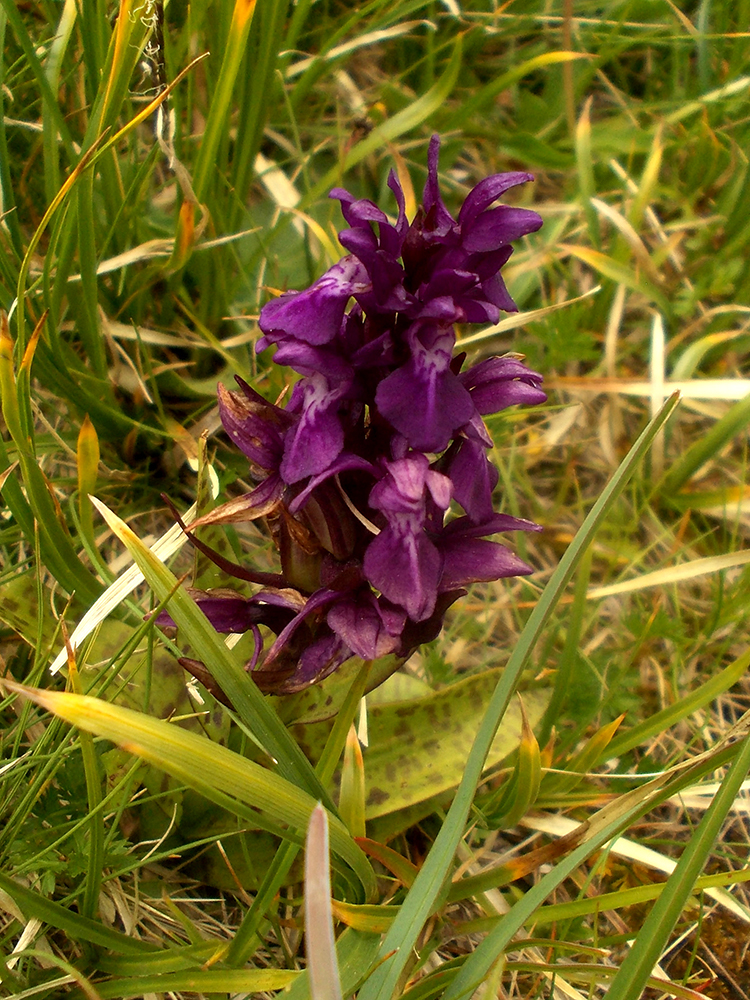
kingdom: Plantae
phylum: Tracheophyta
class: Liliopsida
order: Asparagales
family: Orchidaceae
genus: Dactylorhiza
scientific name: Dactylorhiza majalis
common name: Marsh orchid
